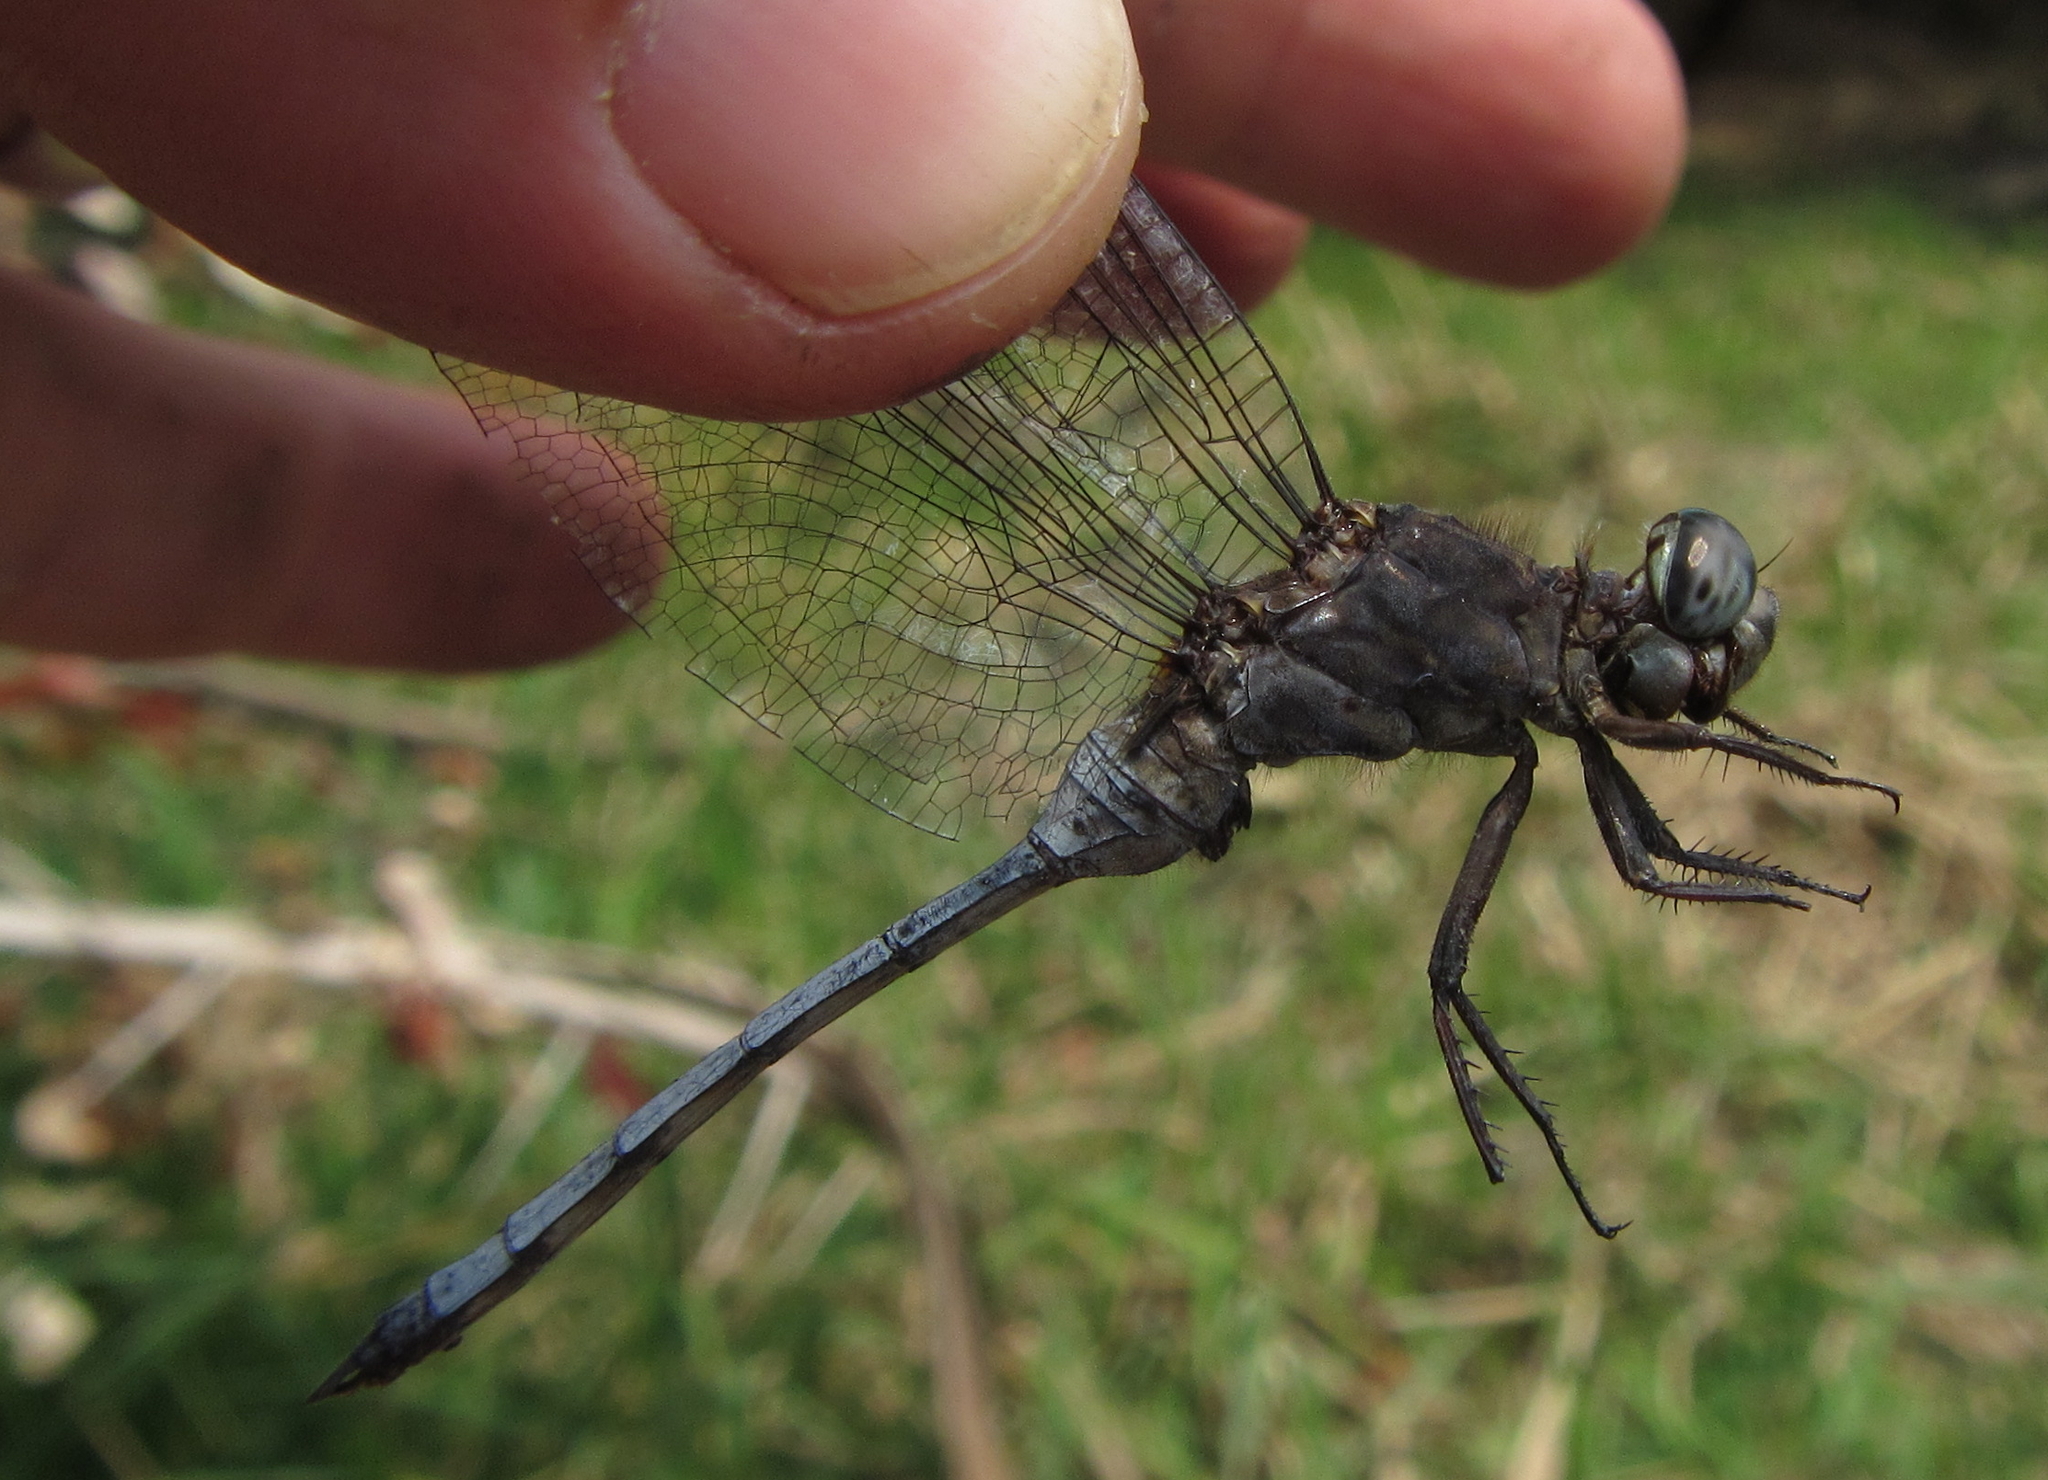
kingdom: Animalia
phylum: Arthropoda
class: Insecta
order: Odonata
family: Libellulidae
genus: Orthetrum
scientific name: Orthetrum stemmale
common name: Bold skimmer
